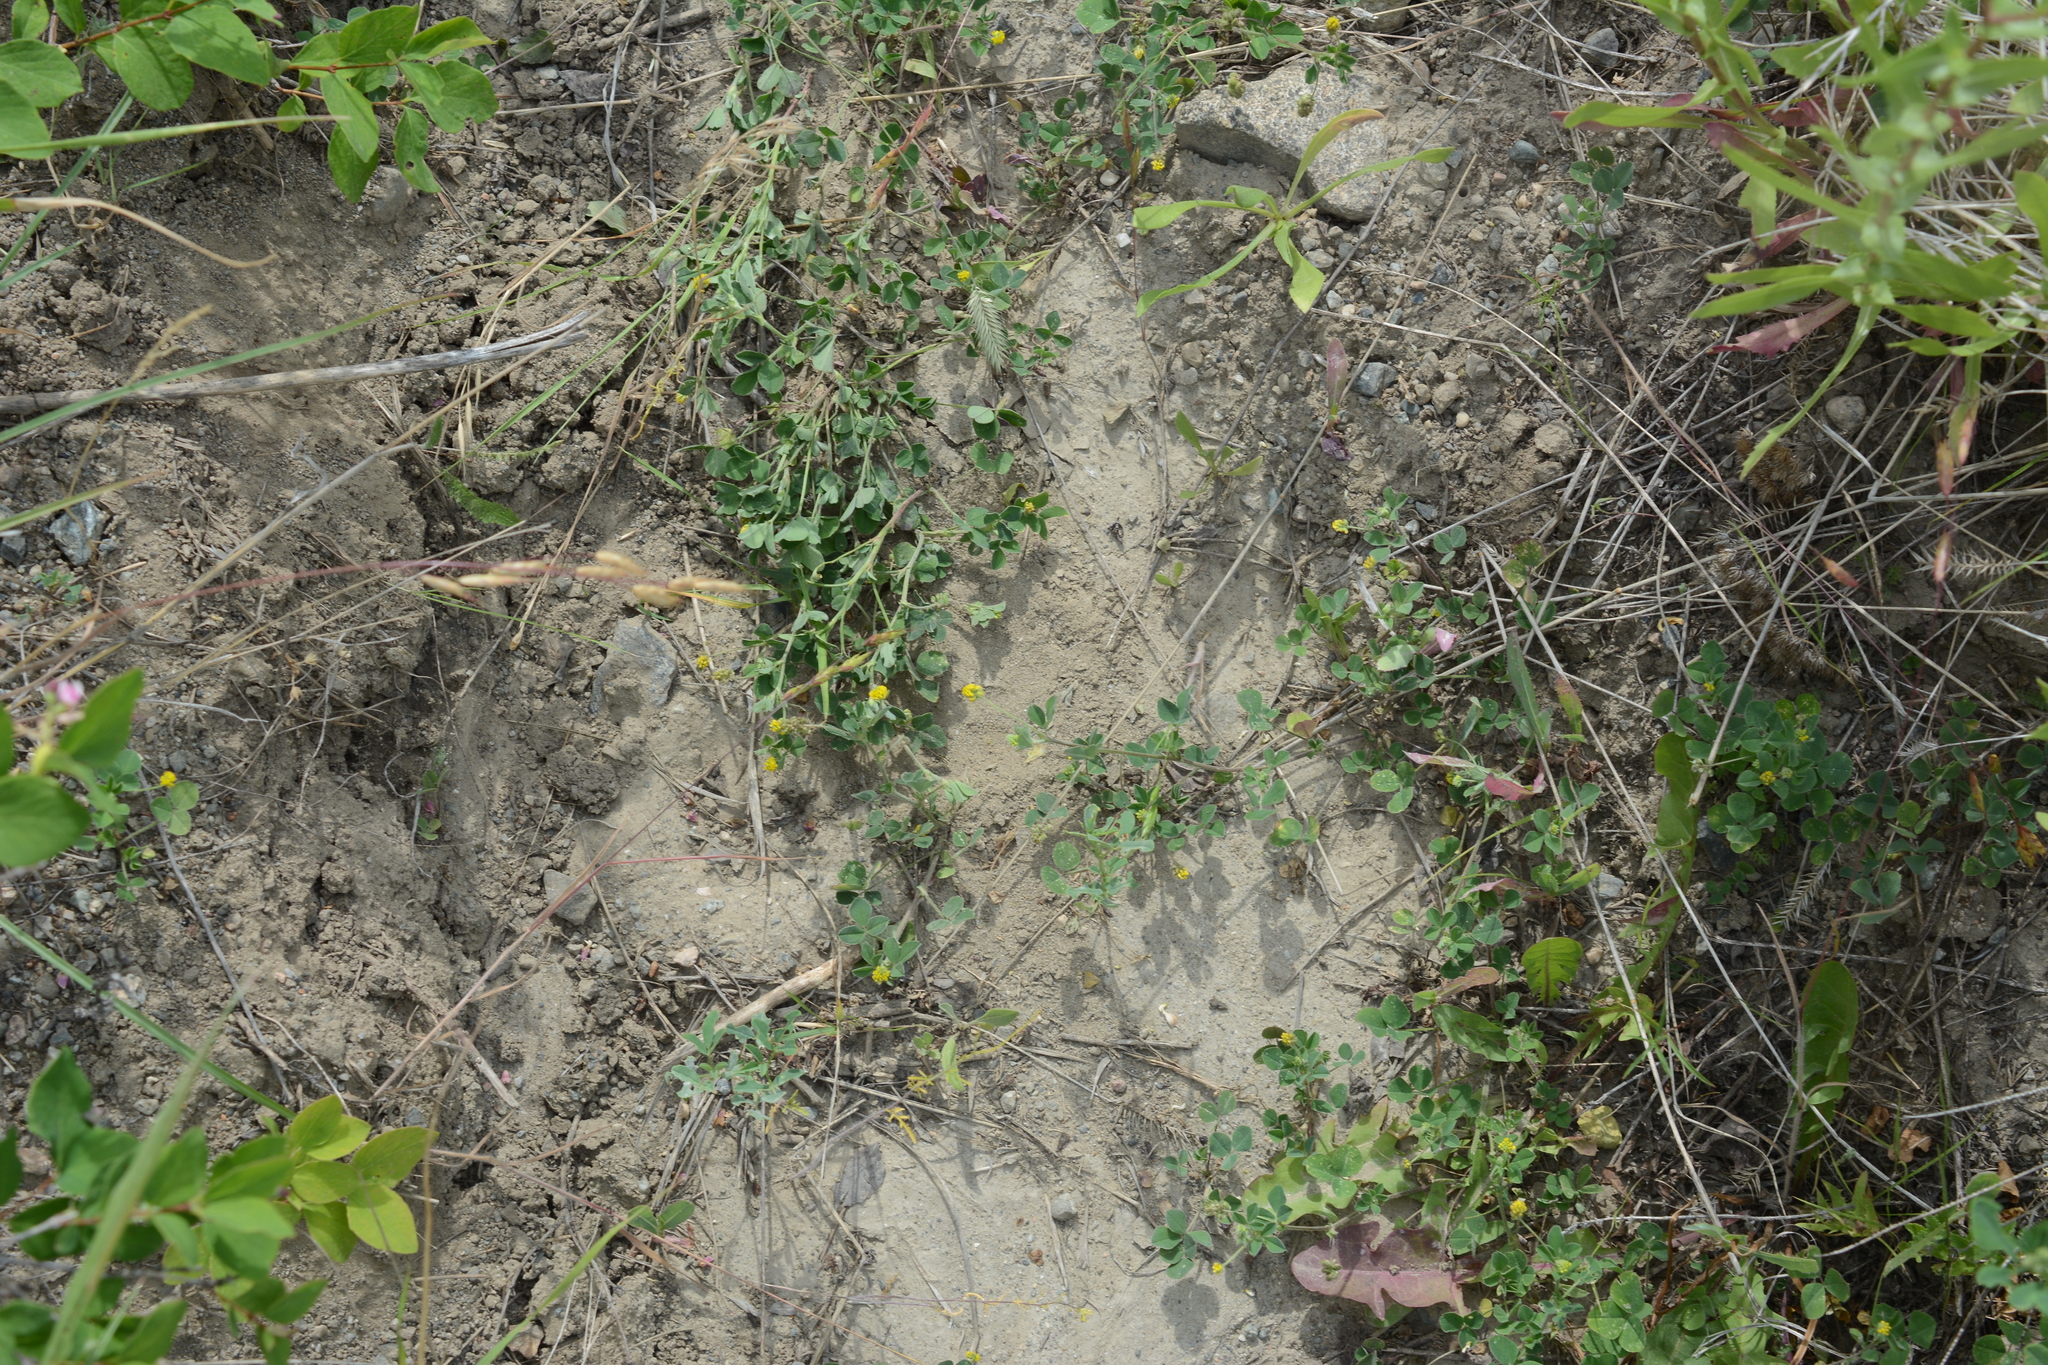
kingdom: Plantae
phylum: Tracheophyta
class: Magnoliopsida
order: Fabales
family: Fabaceae
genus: Medicago
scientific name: Medicago lupulina
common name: Black medick
